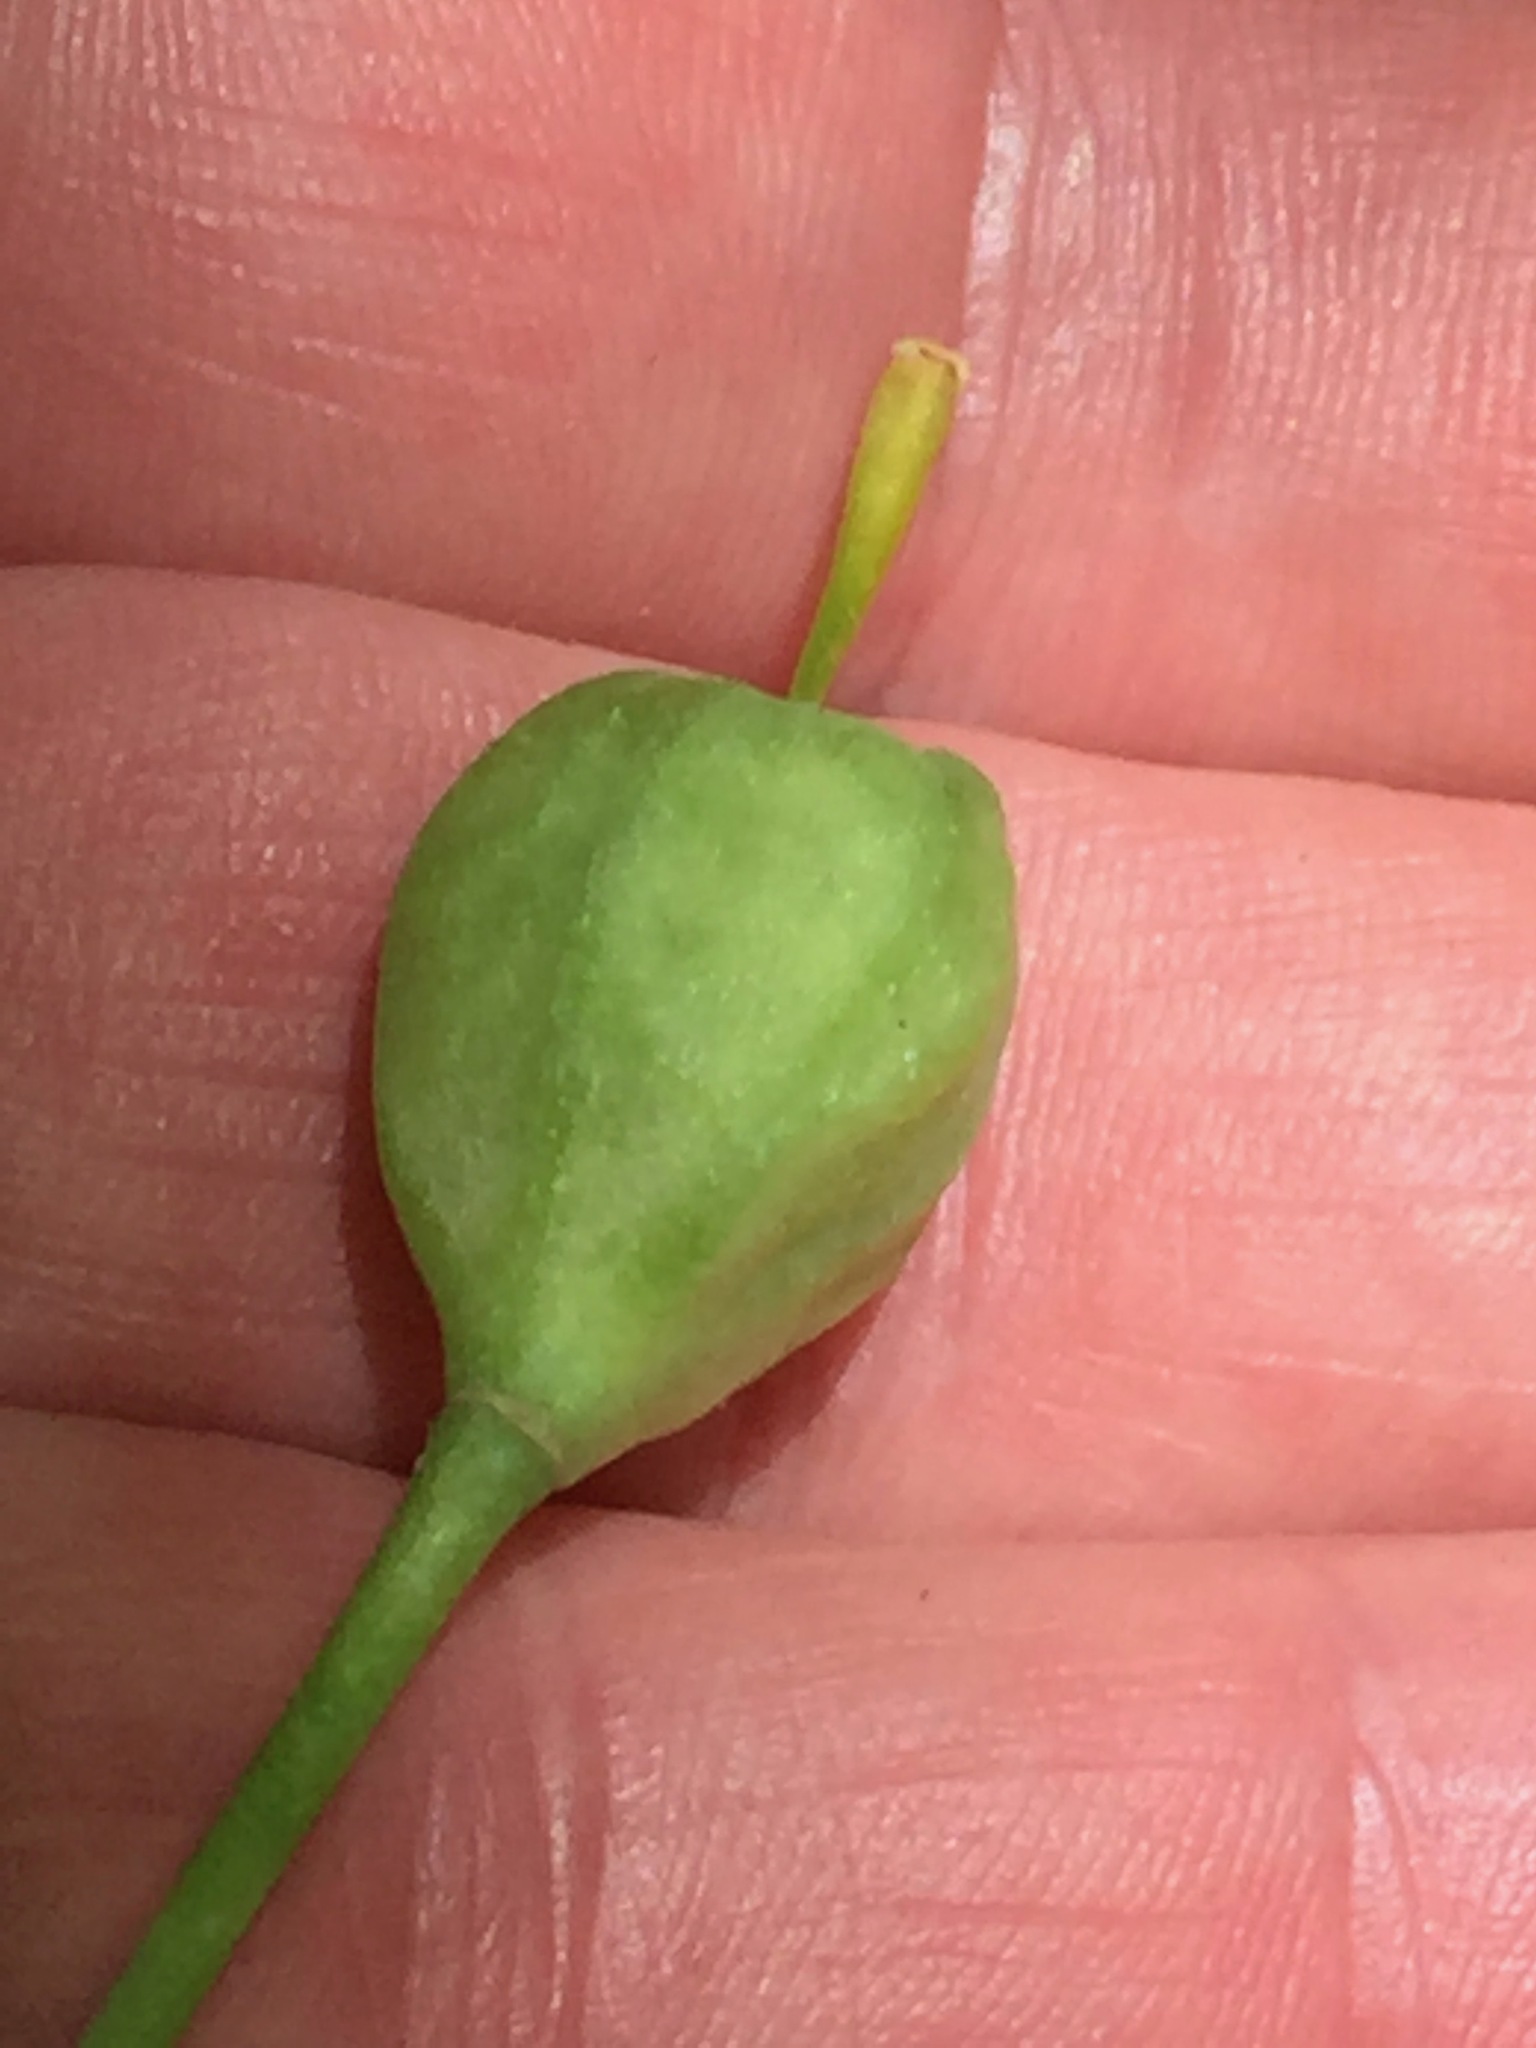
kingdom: Plantae
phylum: Tracheophyta
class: Liliopsida
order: Liliales
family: Liliaceae
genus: Erythronium
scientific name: Erythronium americanum
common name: Yellow adder's-tongue
